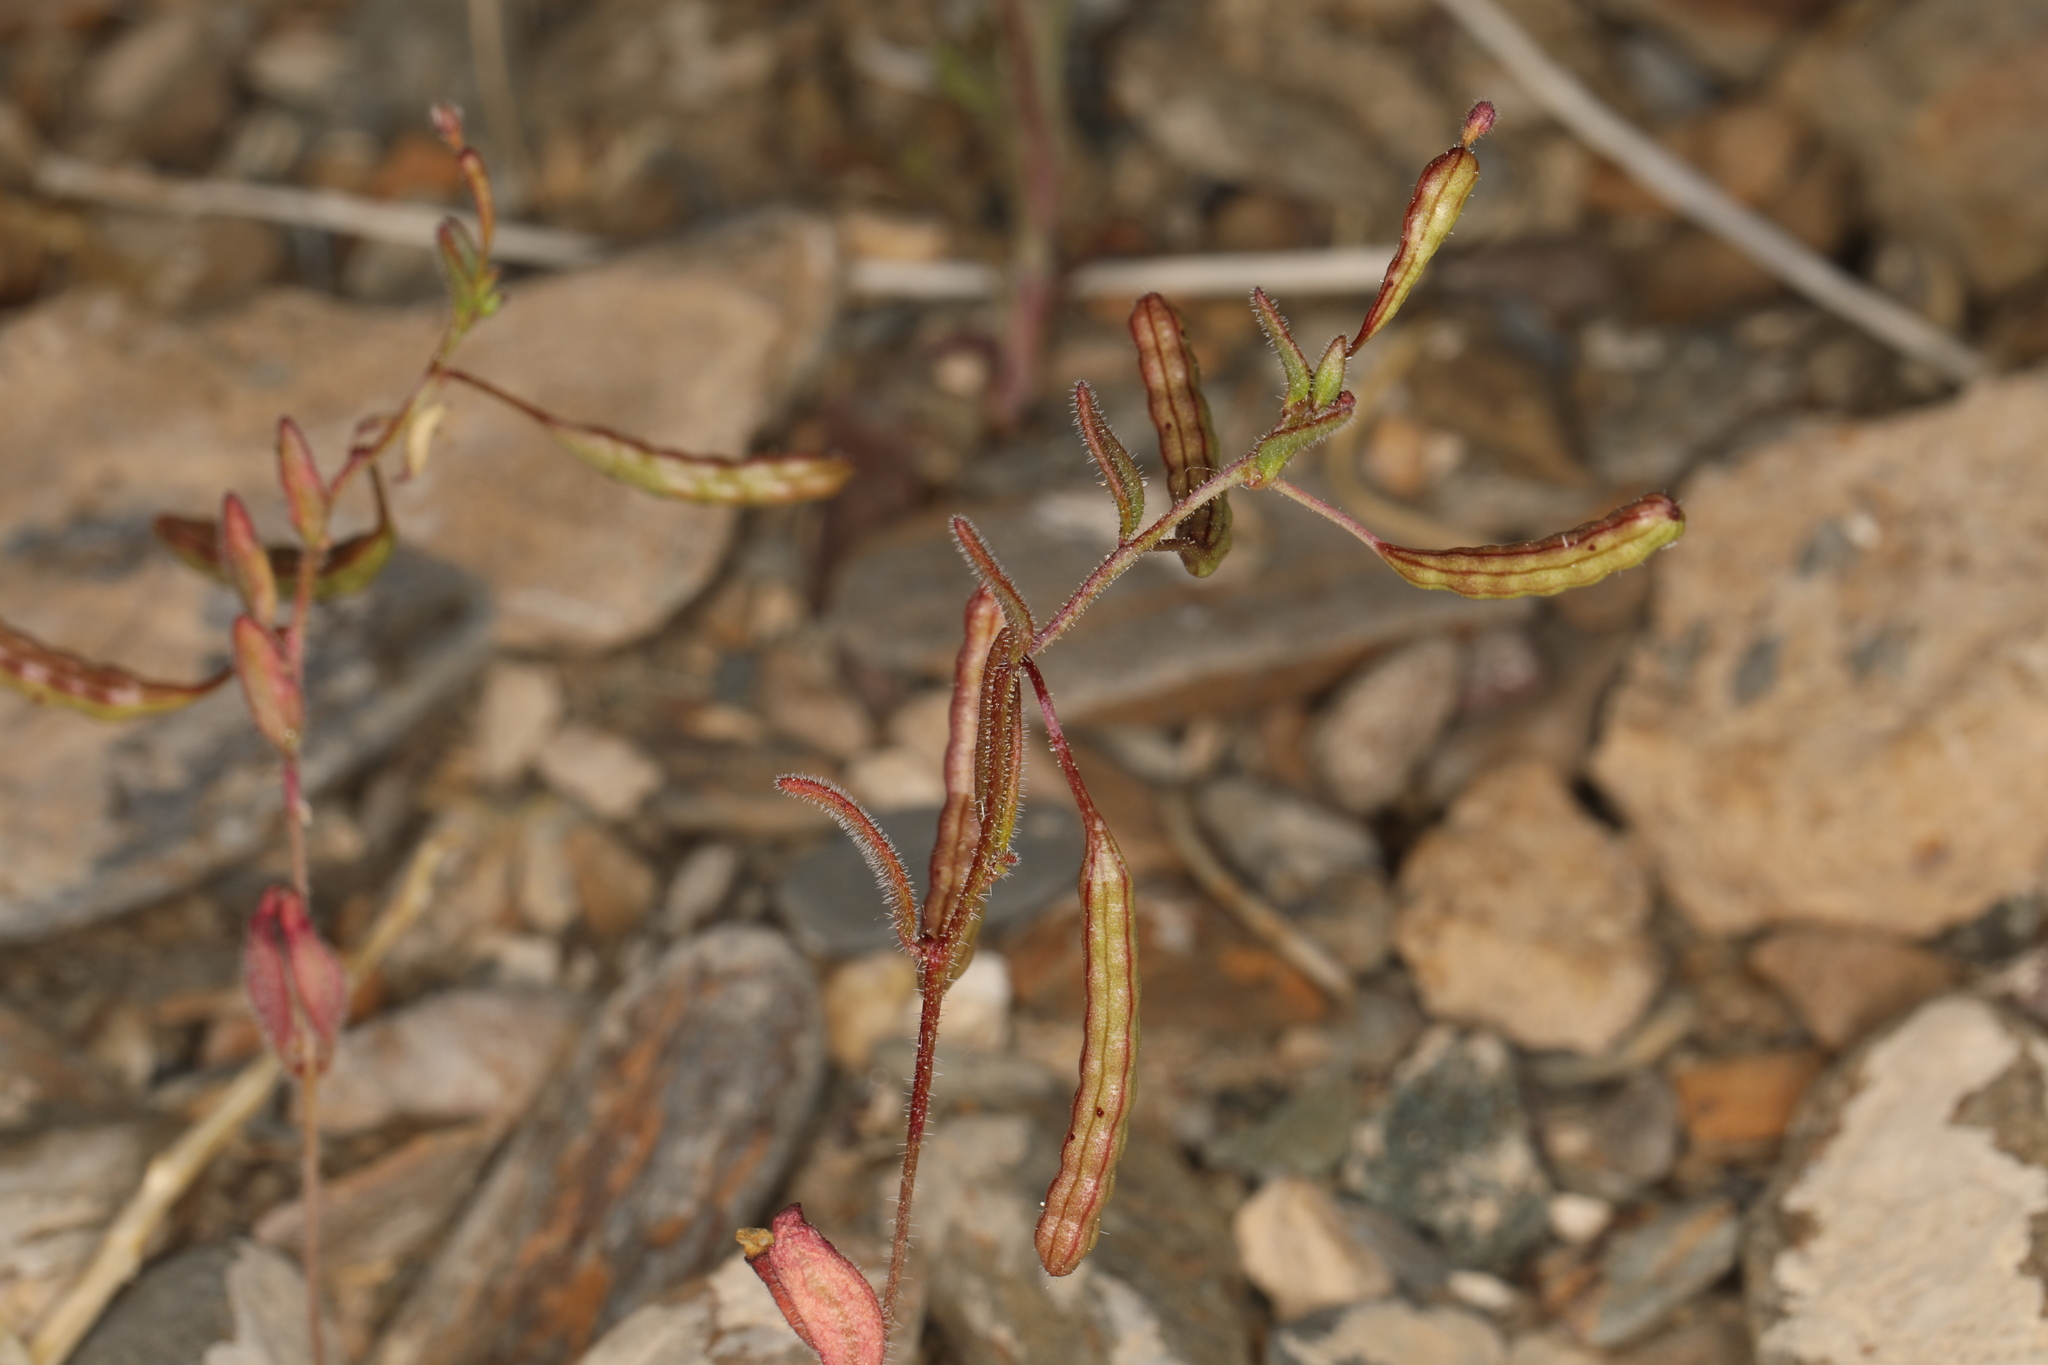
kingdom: Plantae
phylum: Tracheophyta
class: Magnoliopsida
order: Myrtales
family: Onagraceae
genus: Chylismiella
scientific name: Chylismiella pterosperma
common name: Wingfruit suncup
